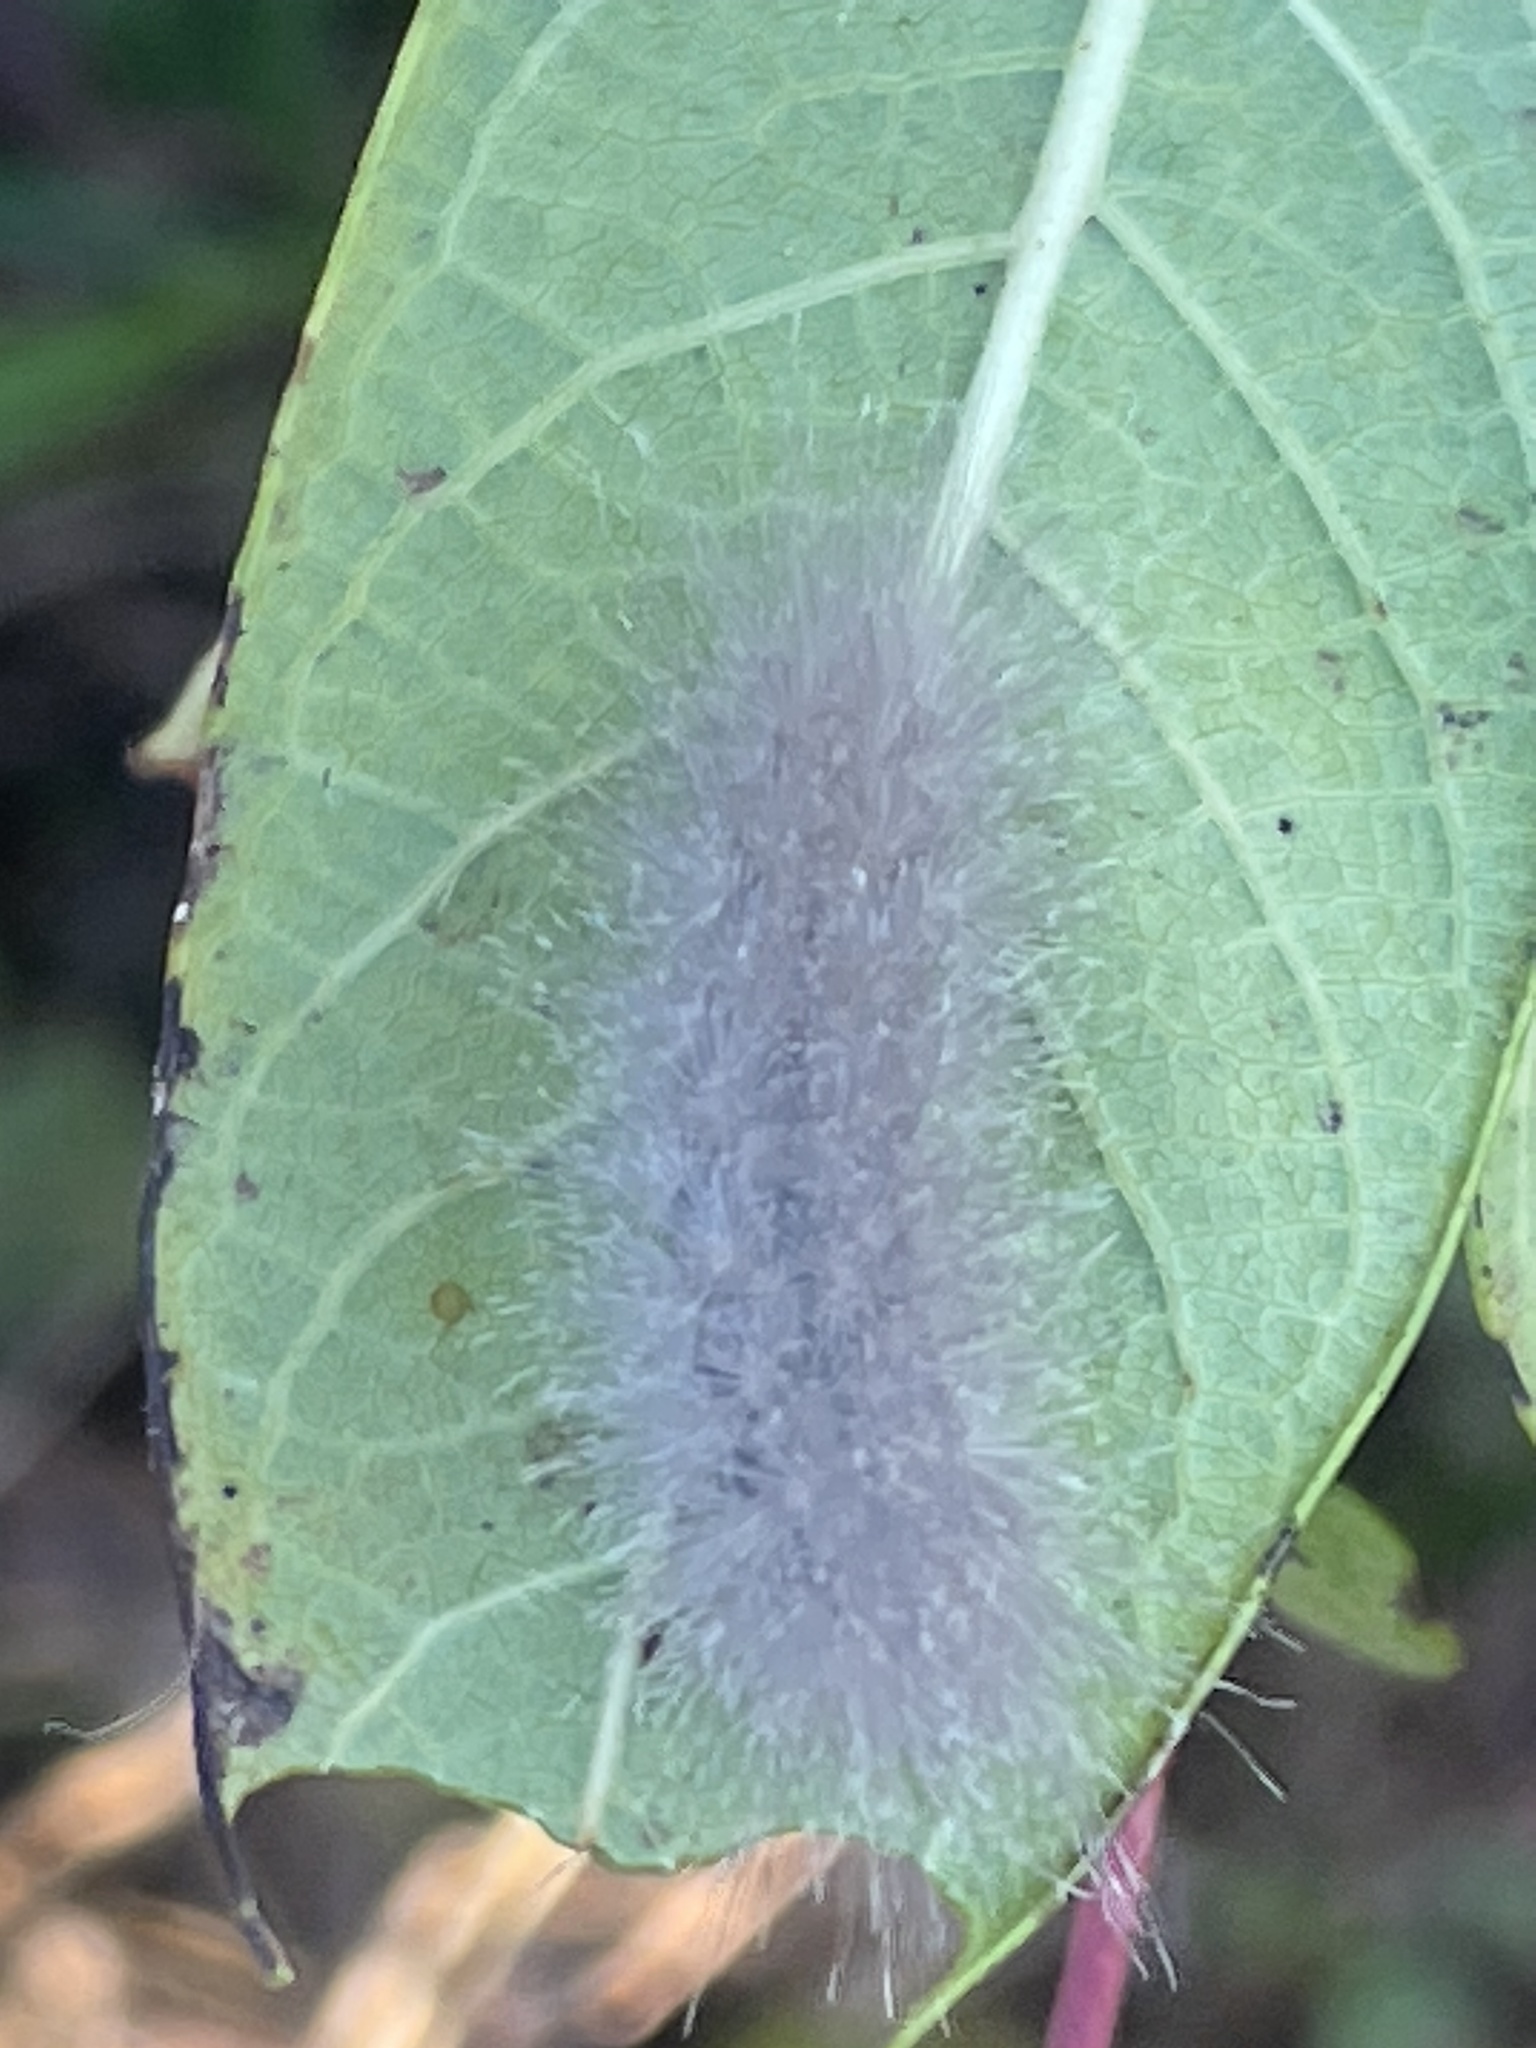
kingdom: Animalia
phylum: Arthropoda
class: Insecta
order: Lepidoptera
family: Erebidae
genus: Cycnia
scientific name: Cycnia tenera
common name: Delicate cycnia moth
